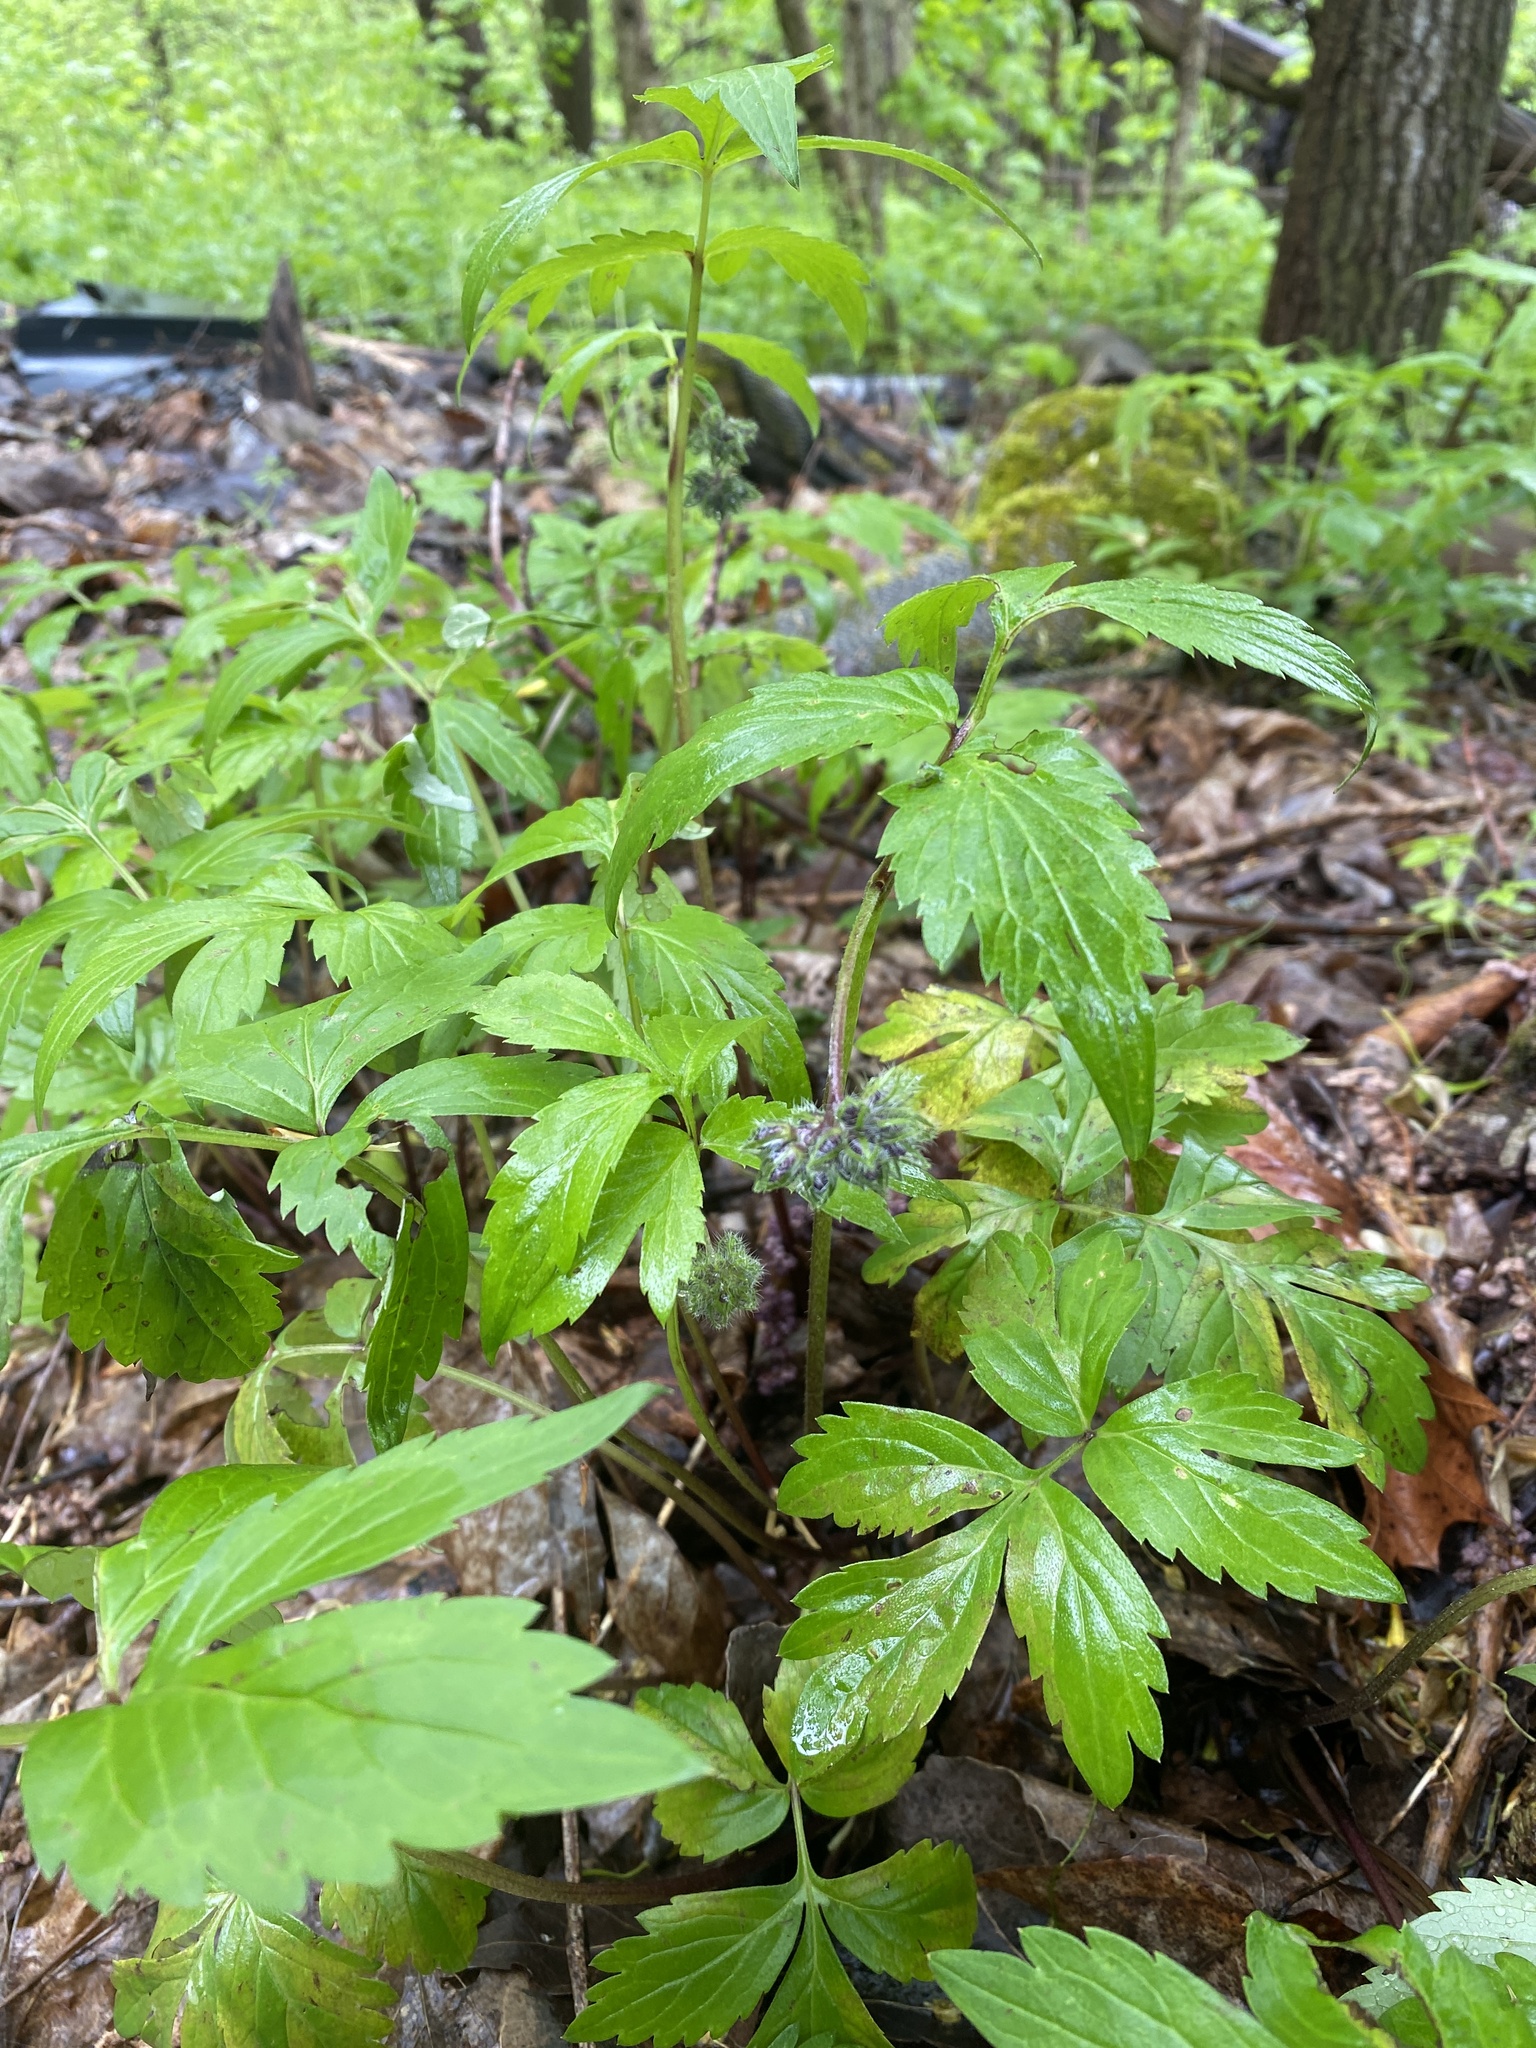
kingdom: Plantae
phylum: Tracheophyta
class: Magnoliopsida
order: Boraginales
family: Hydrophyllaceae
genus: Hydrophyllum
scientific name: Hydrophyllum virginianum
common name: Virginia waterleaf
